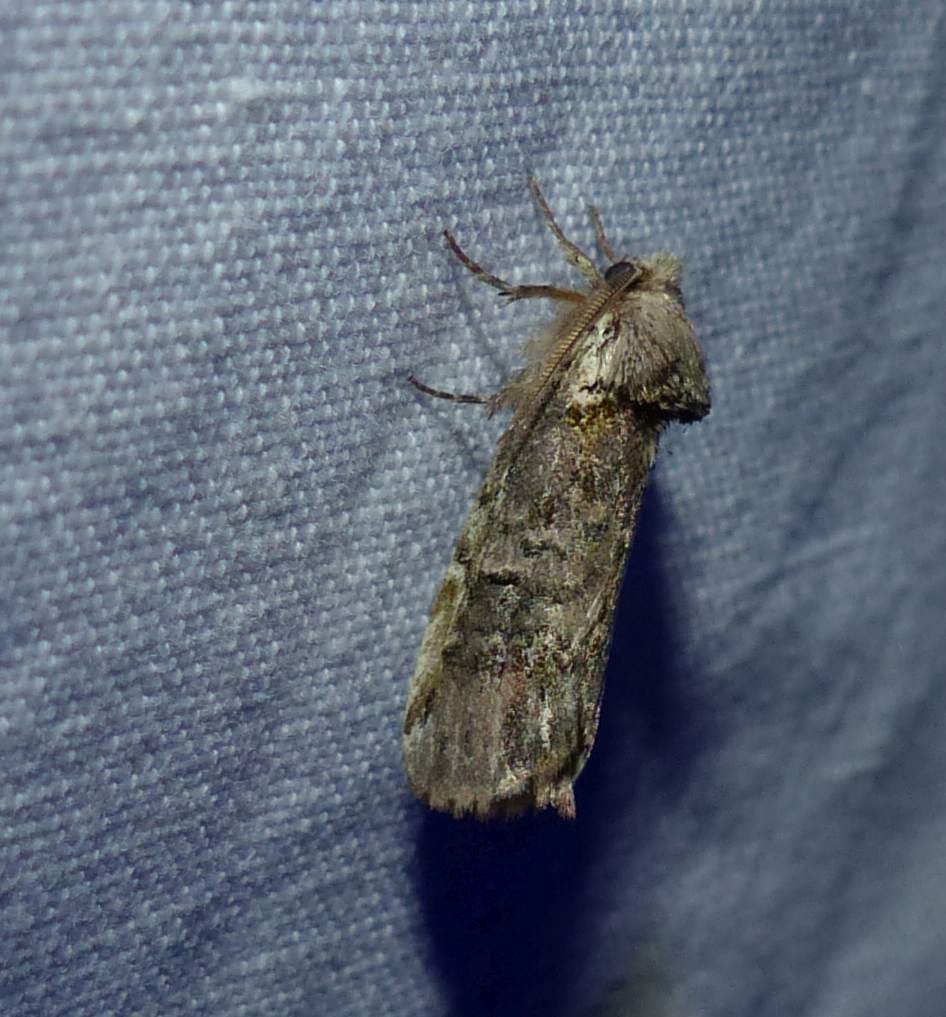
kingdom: Animalia
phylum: Arthropoda
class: Insecta
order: Lepidoptera
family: Notodontidae
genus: Schizura
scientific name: Schizura
